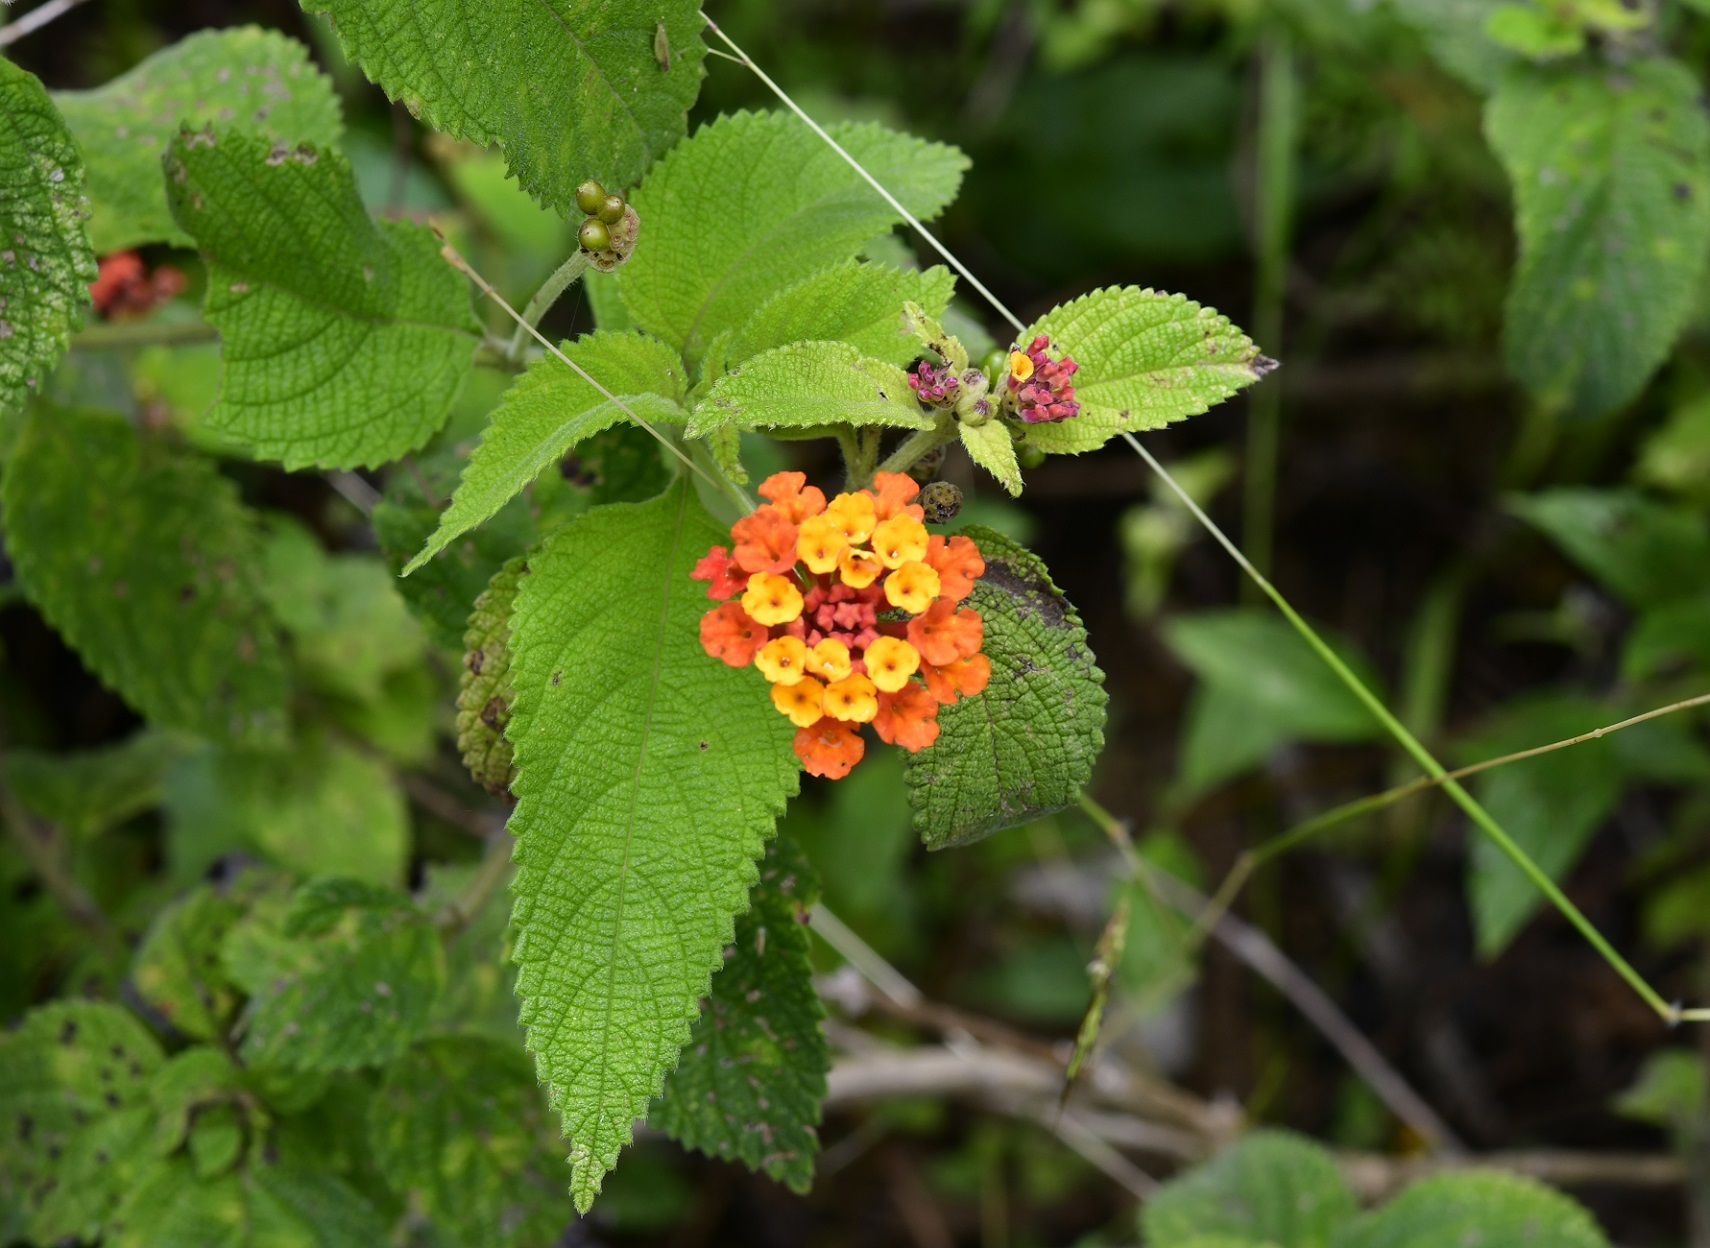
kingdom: Plantae
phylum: Tracheophyta
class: Magnoliopsida
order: Lamiales
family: Verbenaceae
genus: Lantana
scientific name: Lantana horrida
